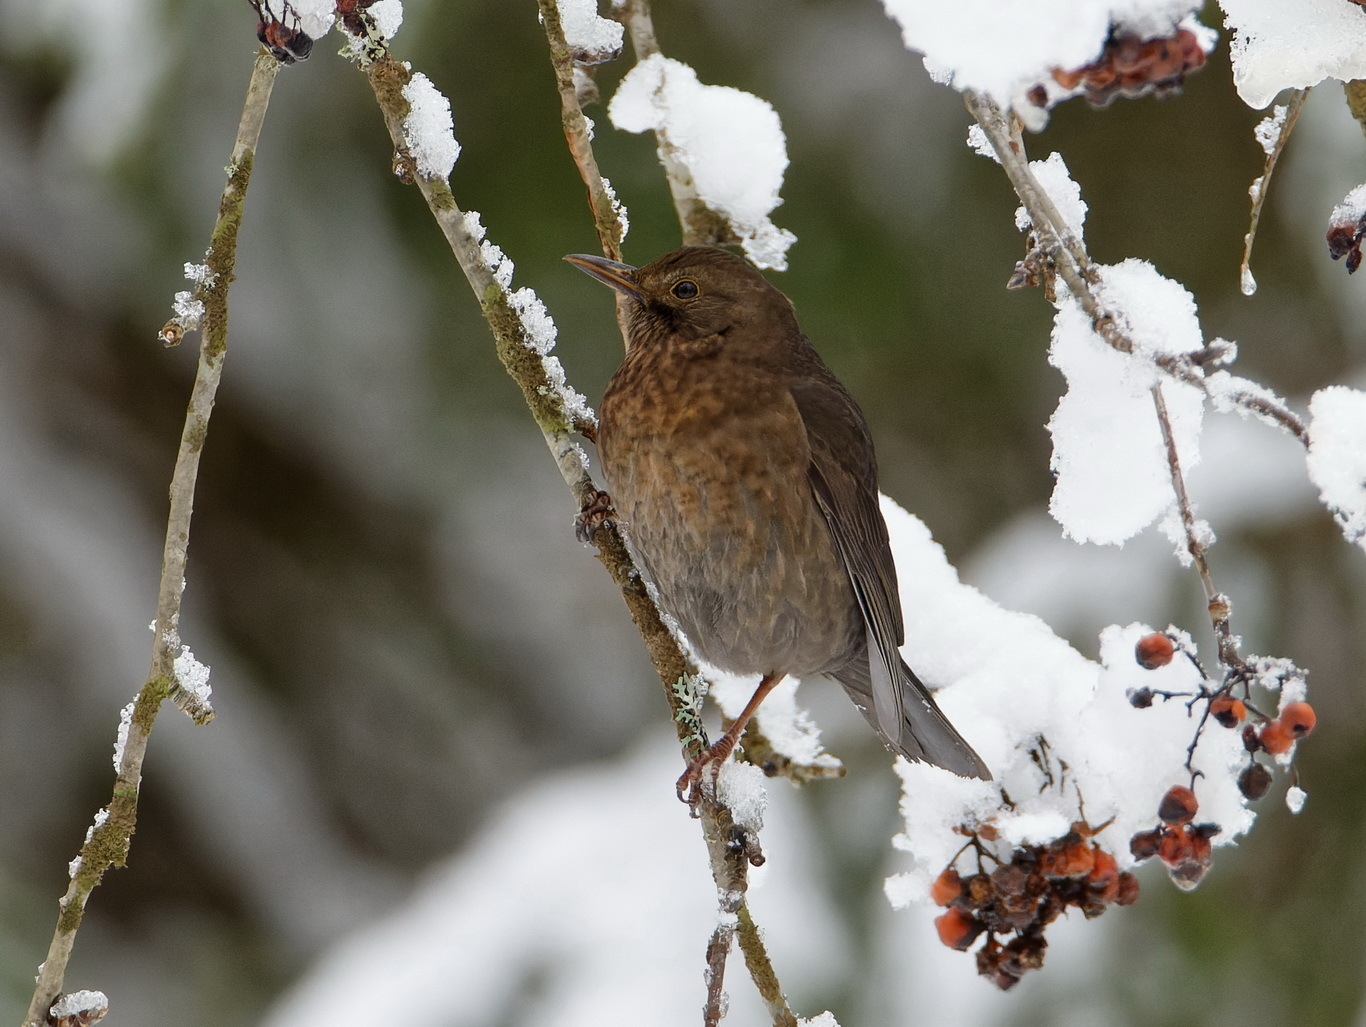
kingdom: Animalia
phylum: Chordata
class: Aves
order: Passeriformes
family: Turdidae
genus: Turdus
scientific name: Turdus merula
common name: Common blackbird
